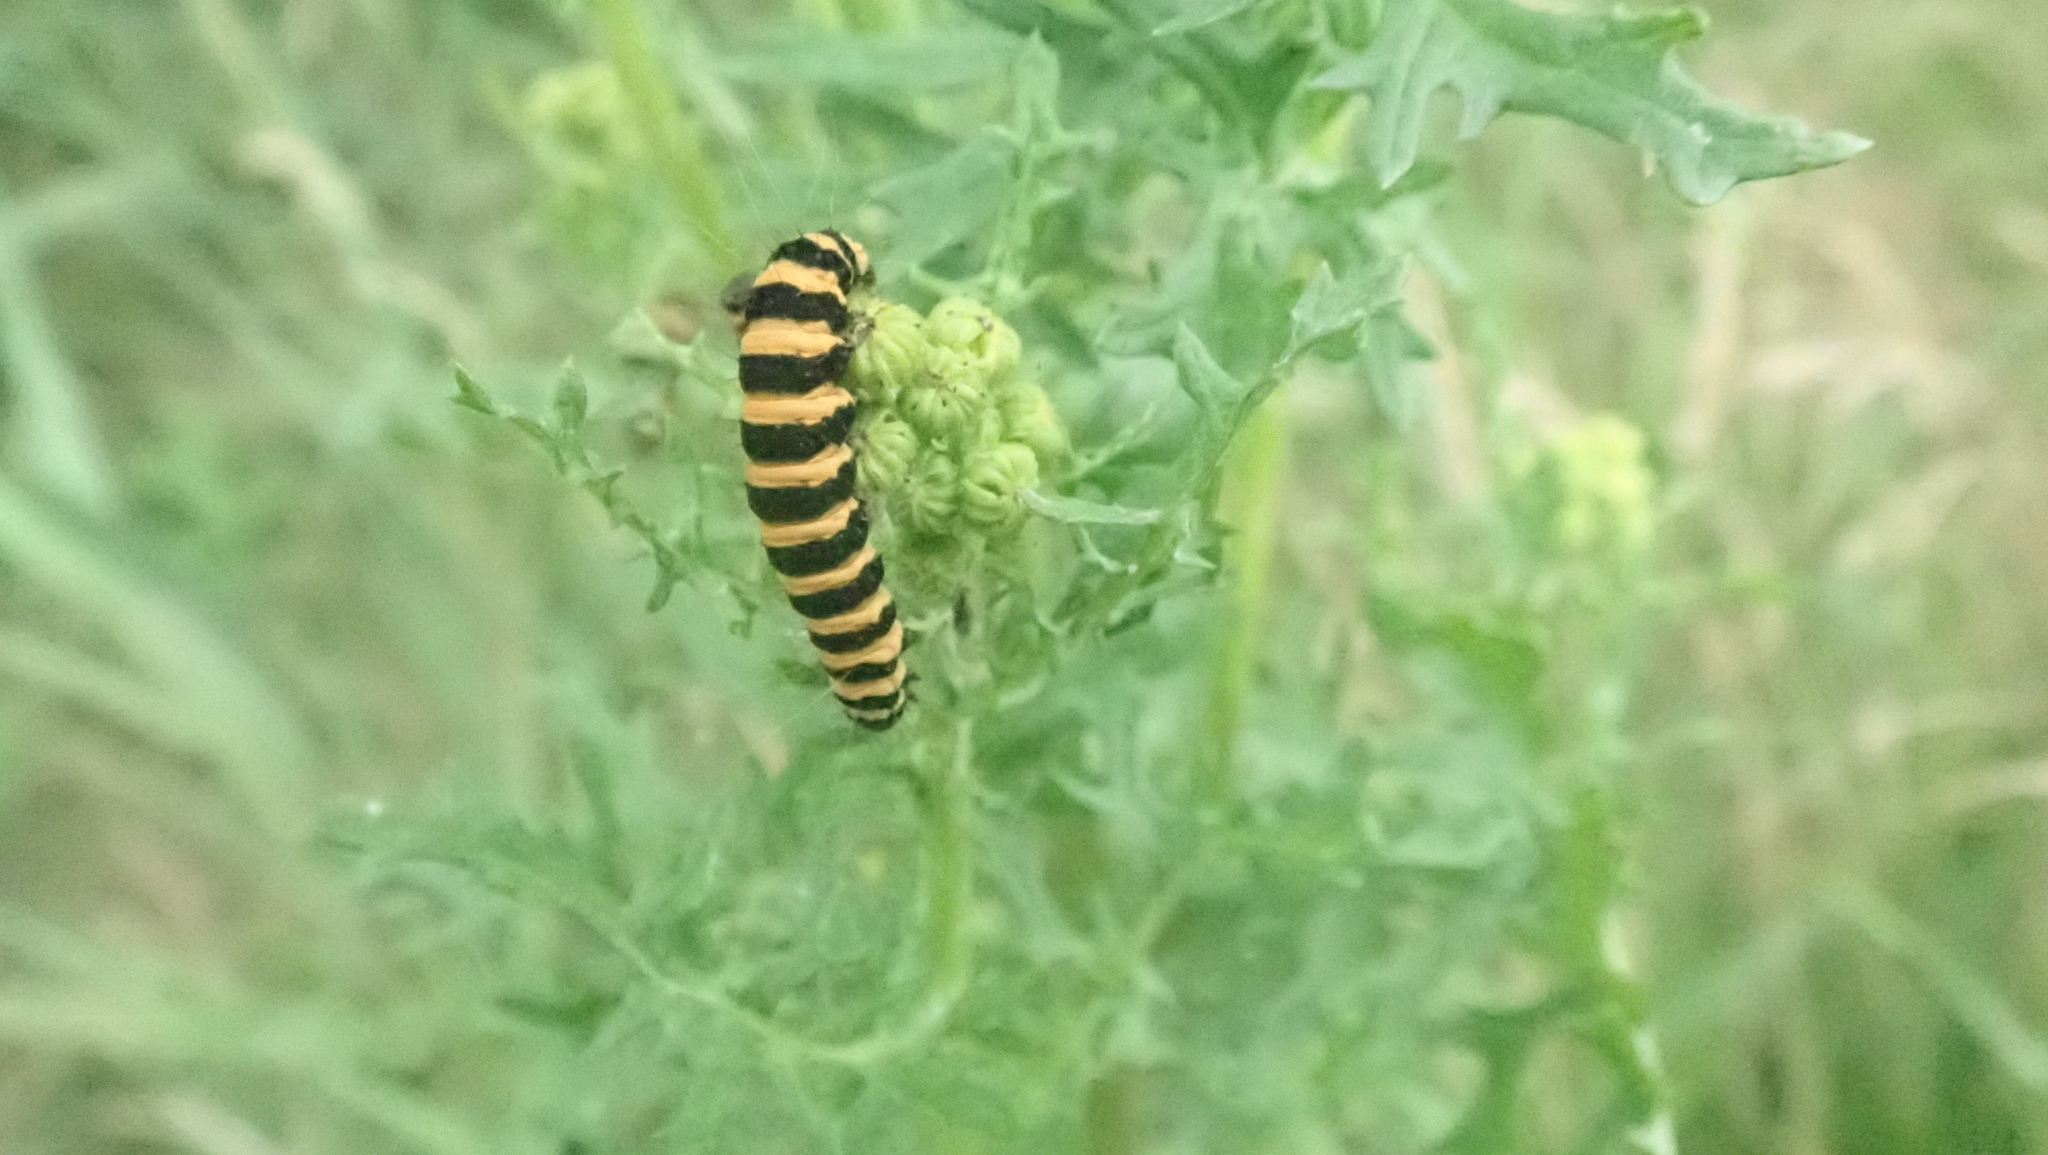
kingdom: Animalia
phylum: Arthropoda
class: Insecta
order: Lepidoptera
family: Erebidae
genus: Tyria
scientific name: Tyria jacobaeae
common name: Cinnabar
